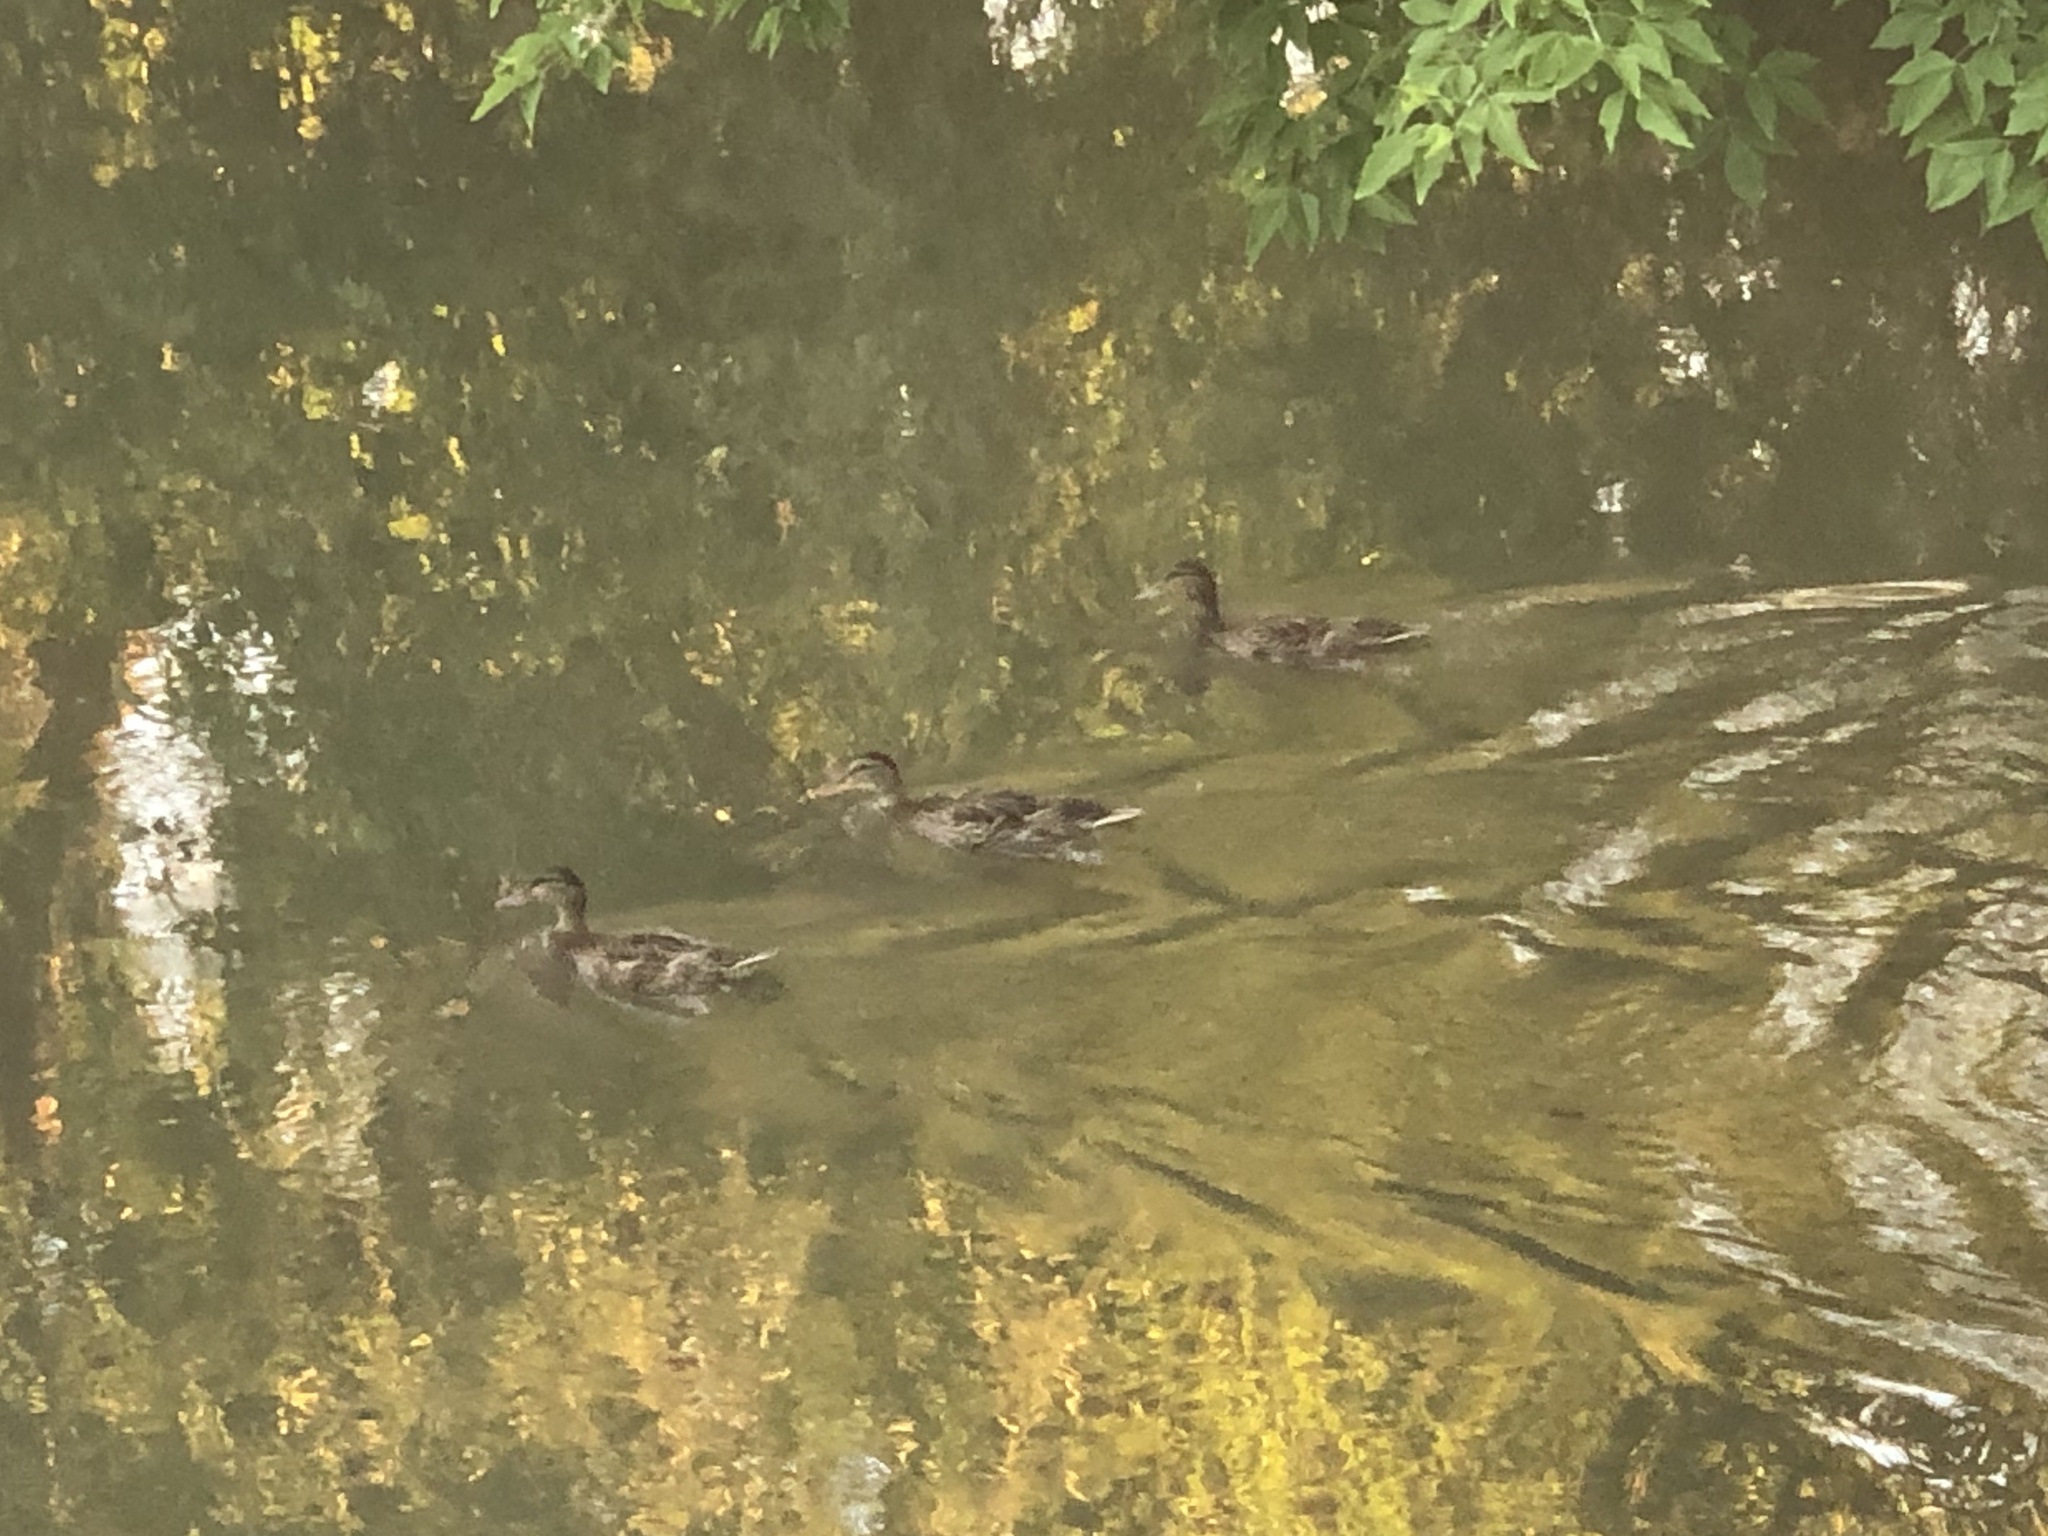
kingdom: Animalia
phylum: Chordata
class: Aves
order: Anseriformes
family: Anatidae
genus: Anas
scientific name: Anas platyrhynchos
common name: Mallard
